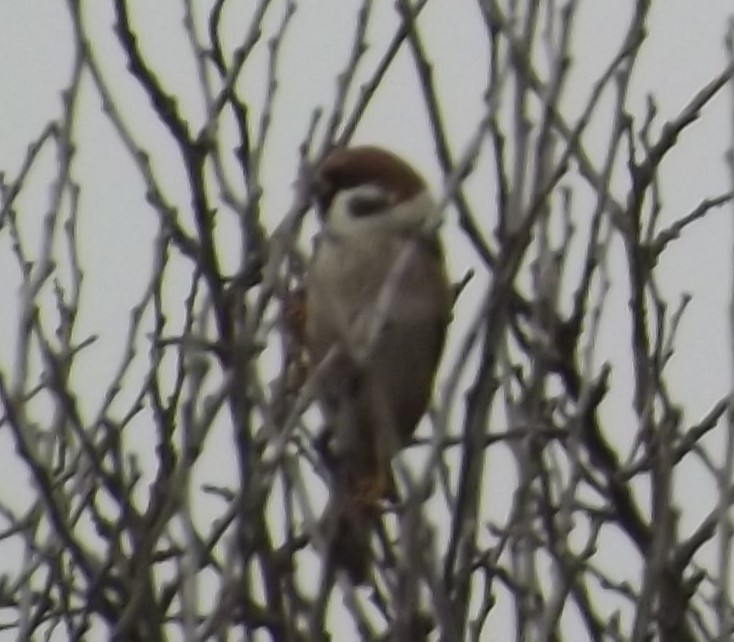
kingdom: Animalia
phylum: Chordata
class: Aves
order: Passeriformes
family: Passeridae
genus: Passer
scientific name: Passer montanus
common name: Eurasian tree sparrow
